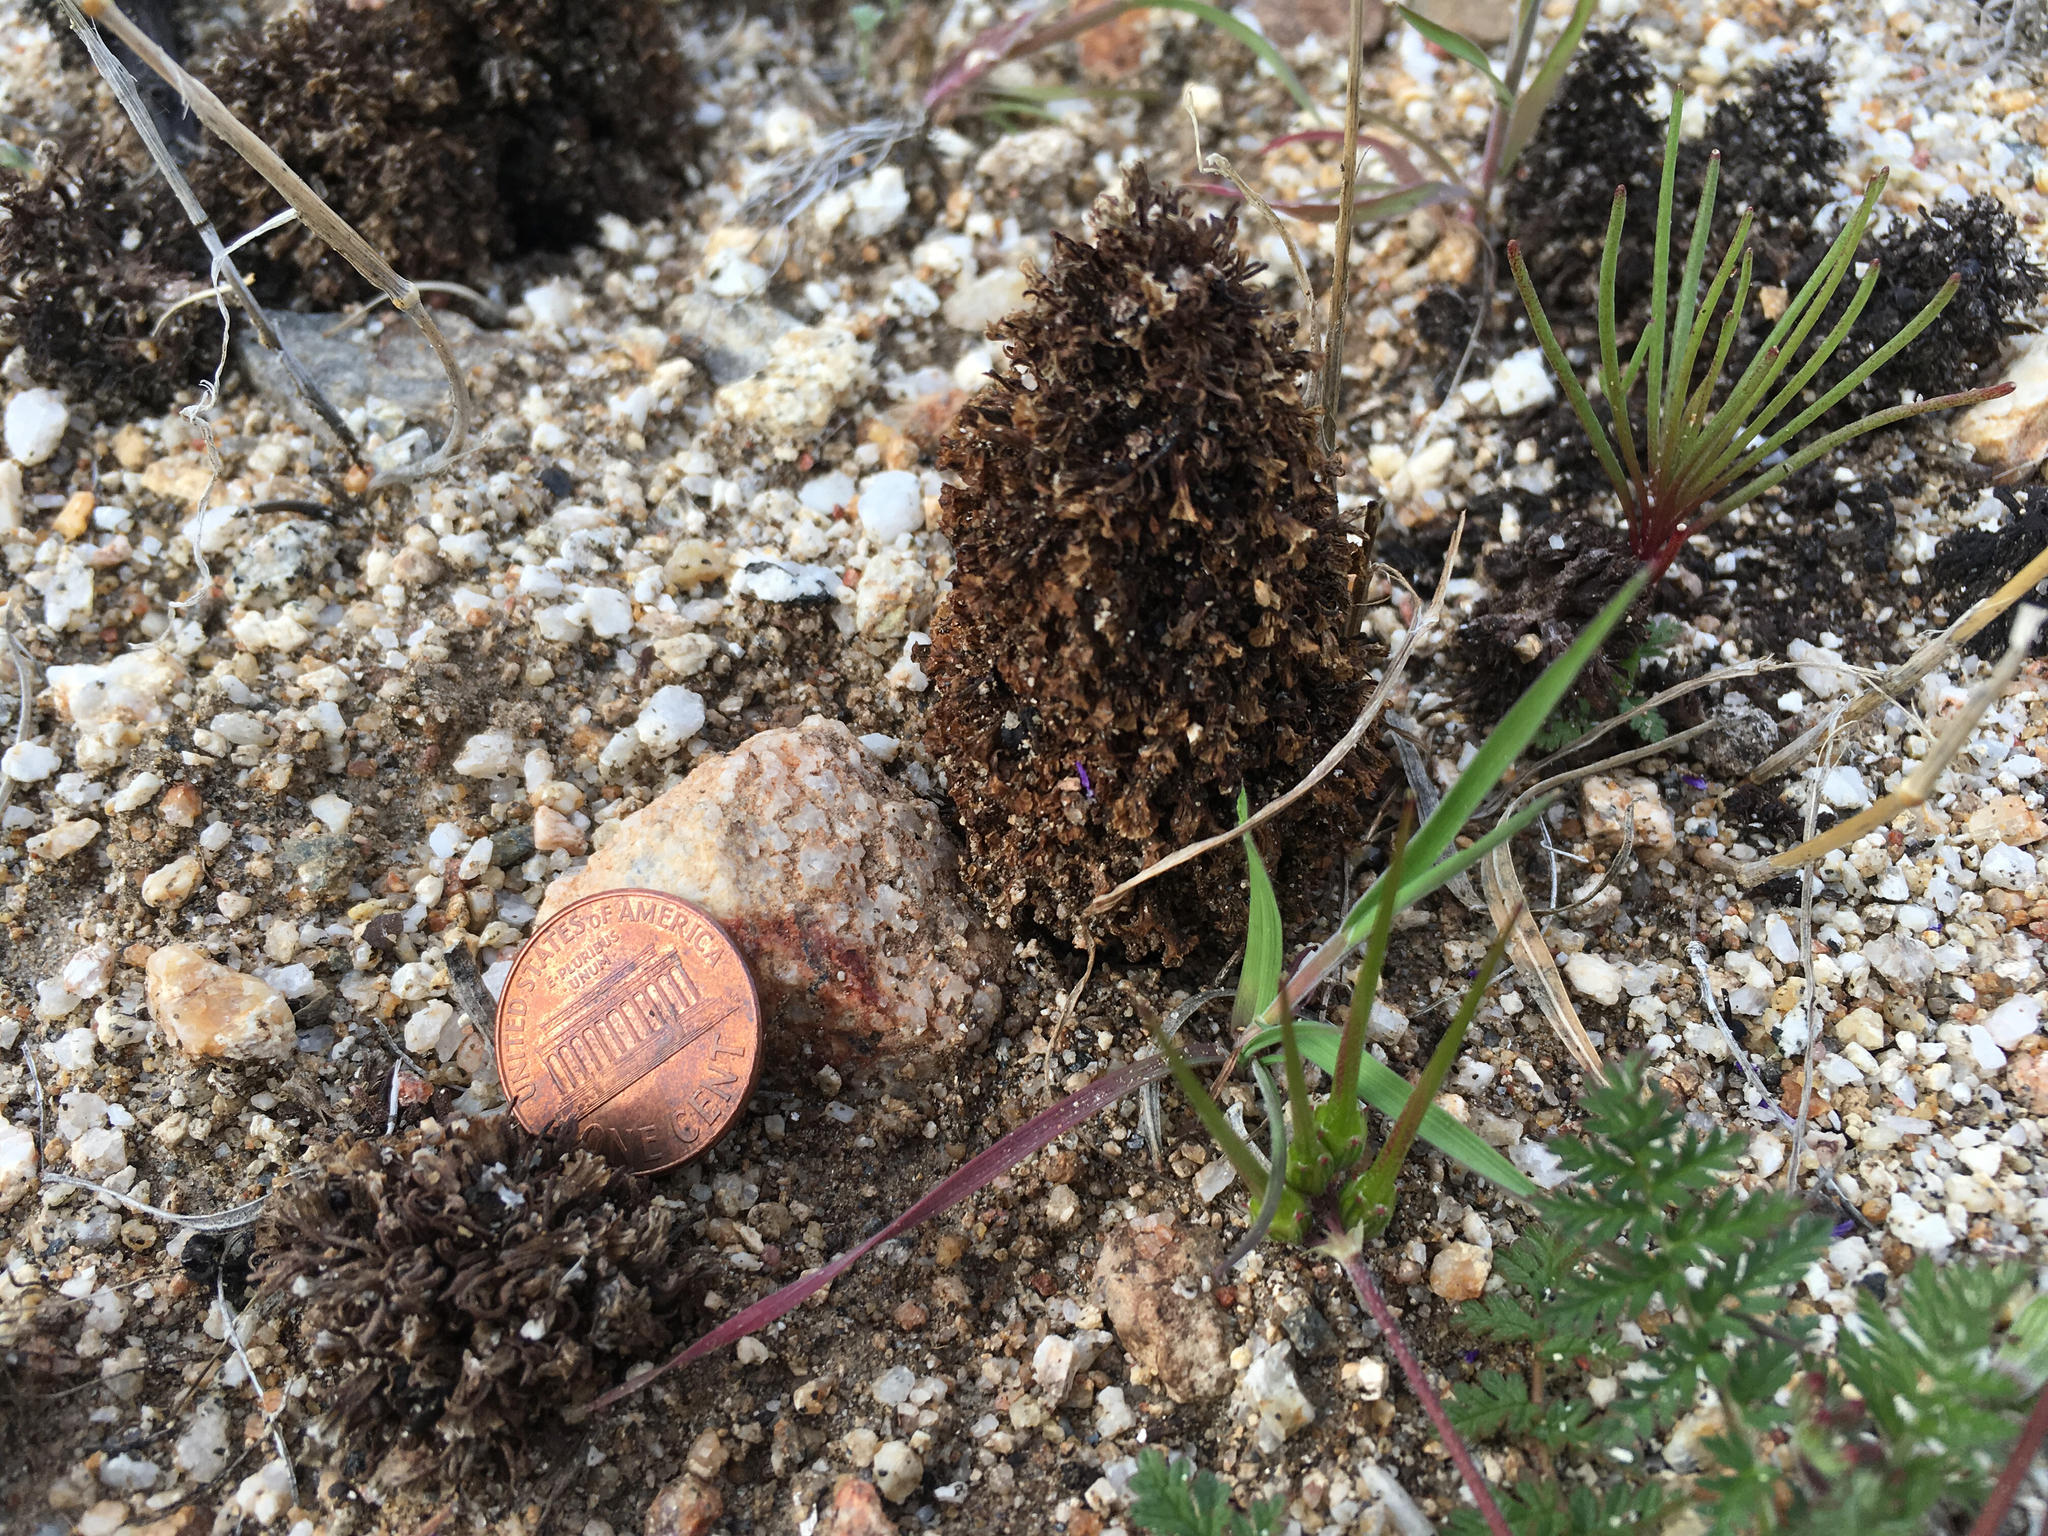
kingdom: Plantae
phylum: Tracheophyta
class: Magnoliopsida
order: Boraginales
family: Lennoaceae
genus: Pholisma
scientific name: Pholisma arenarium
